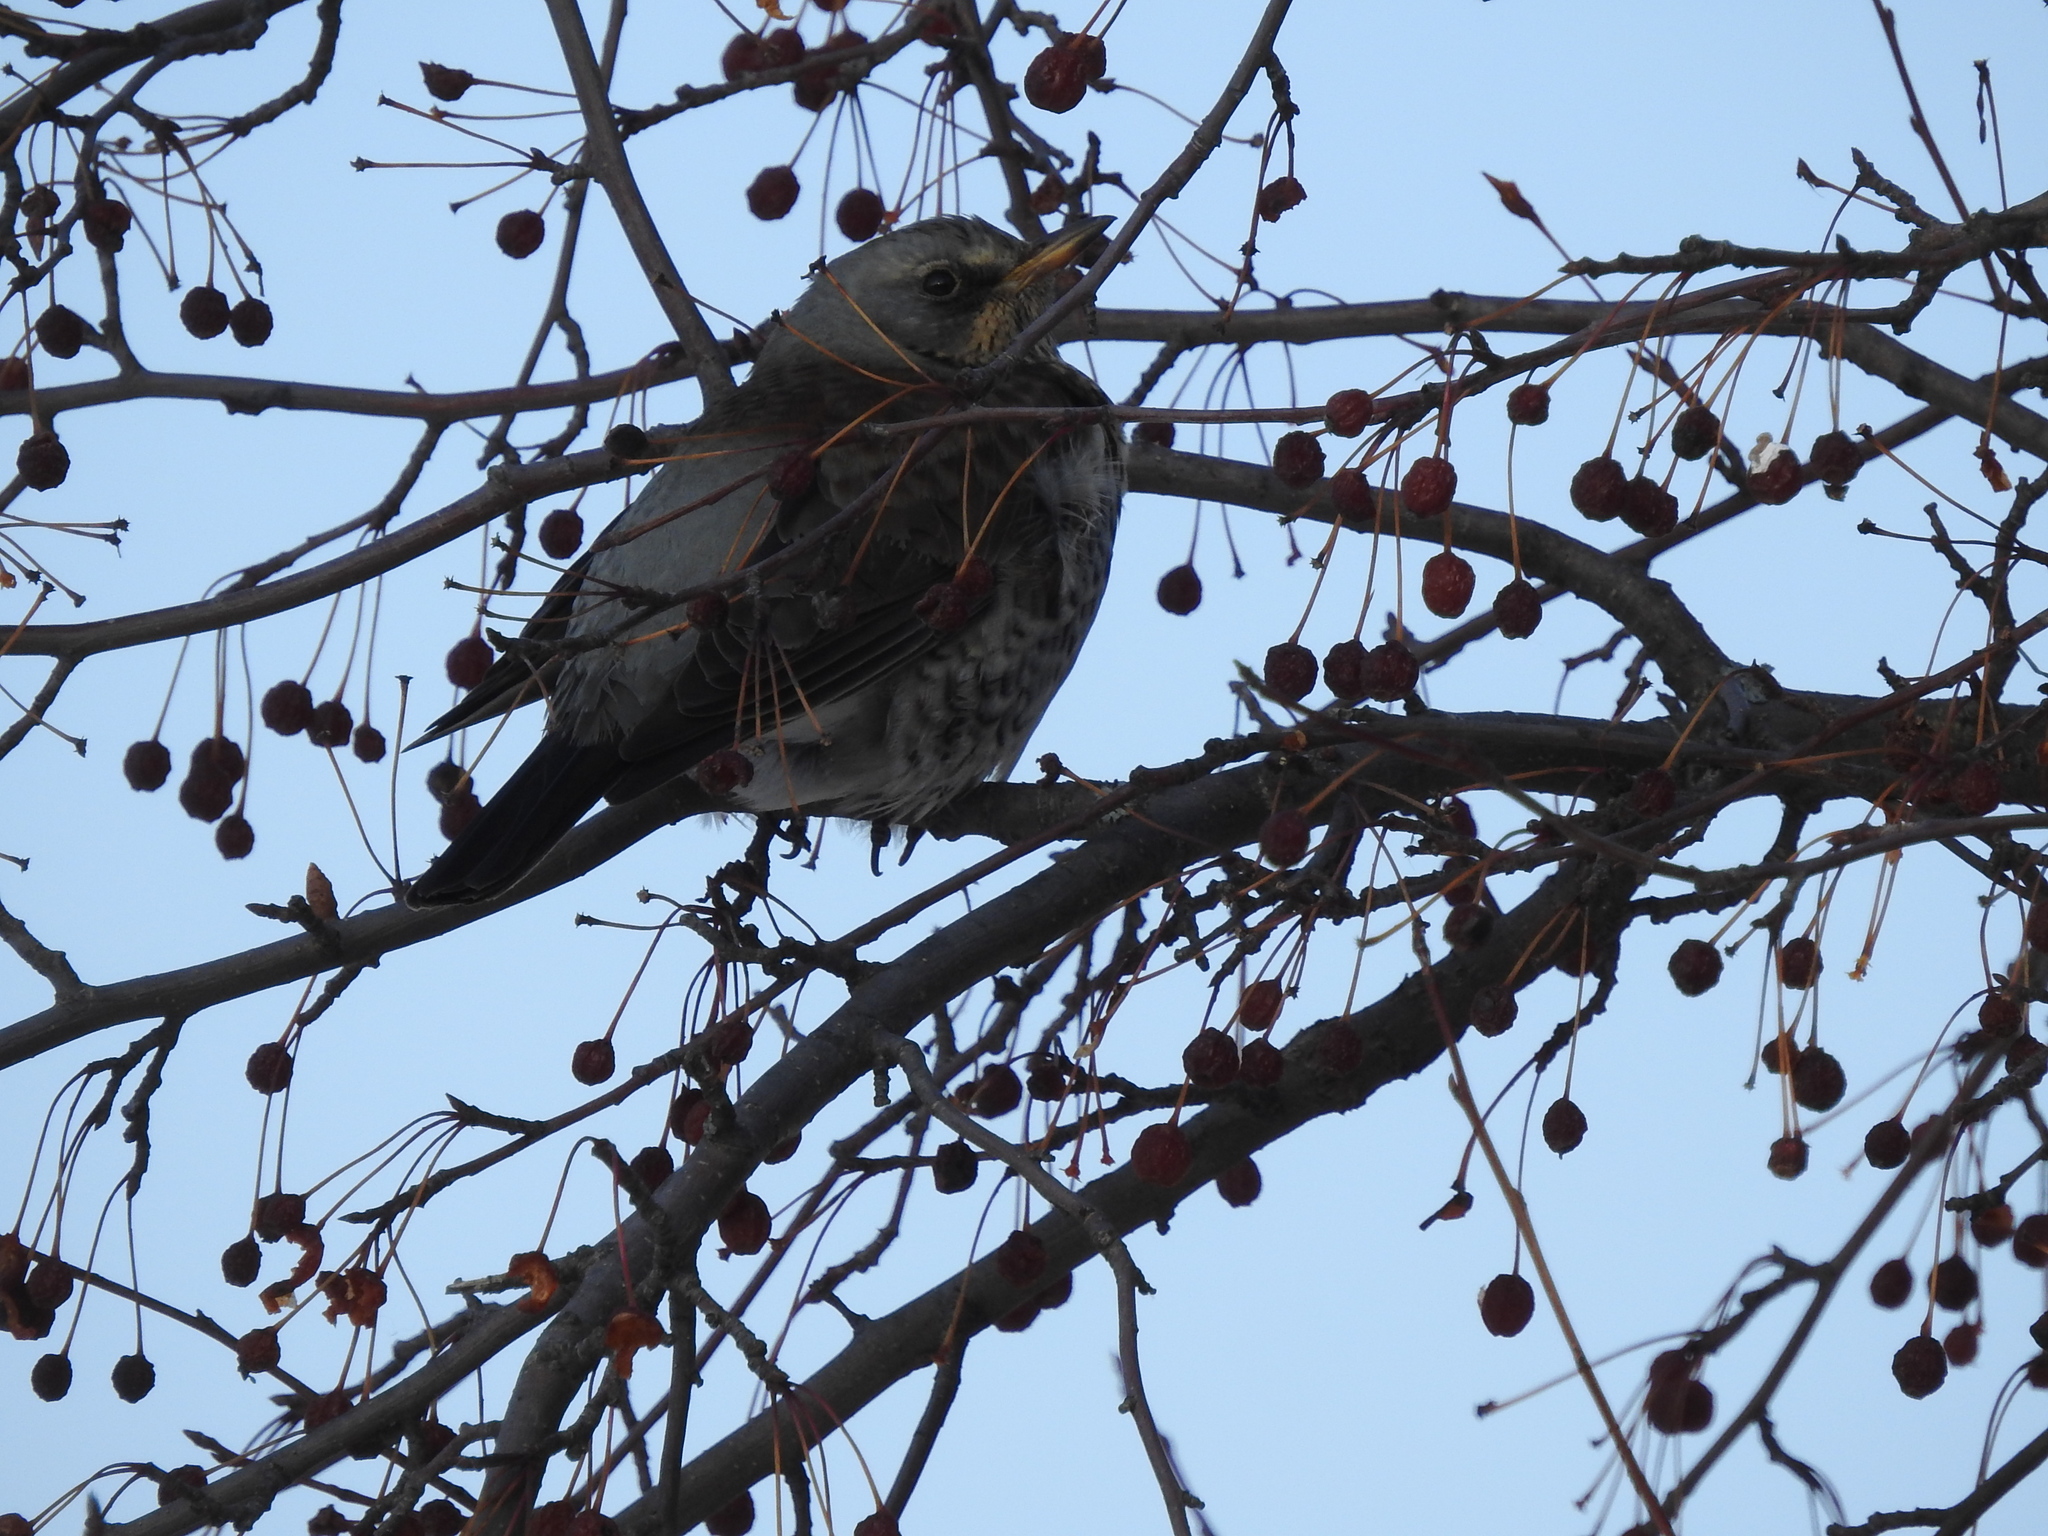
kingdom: Animalia
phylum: Chordata
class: Aves
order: Passeriformes
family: Turdidae
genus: Turdus
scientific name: Turdus pilaris
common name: Fieldfare
